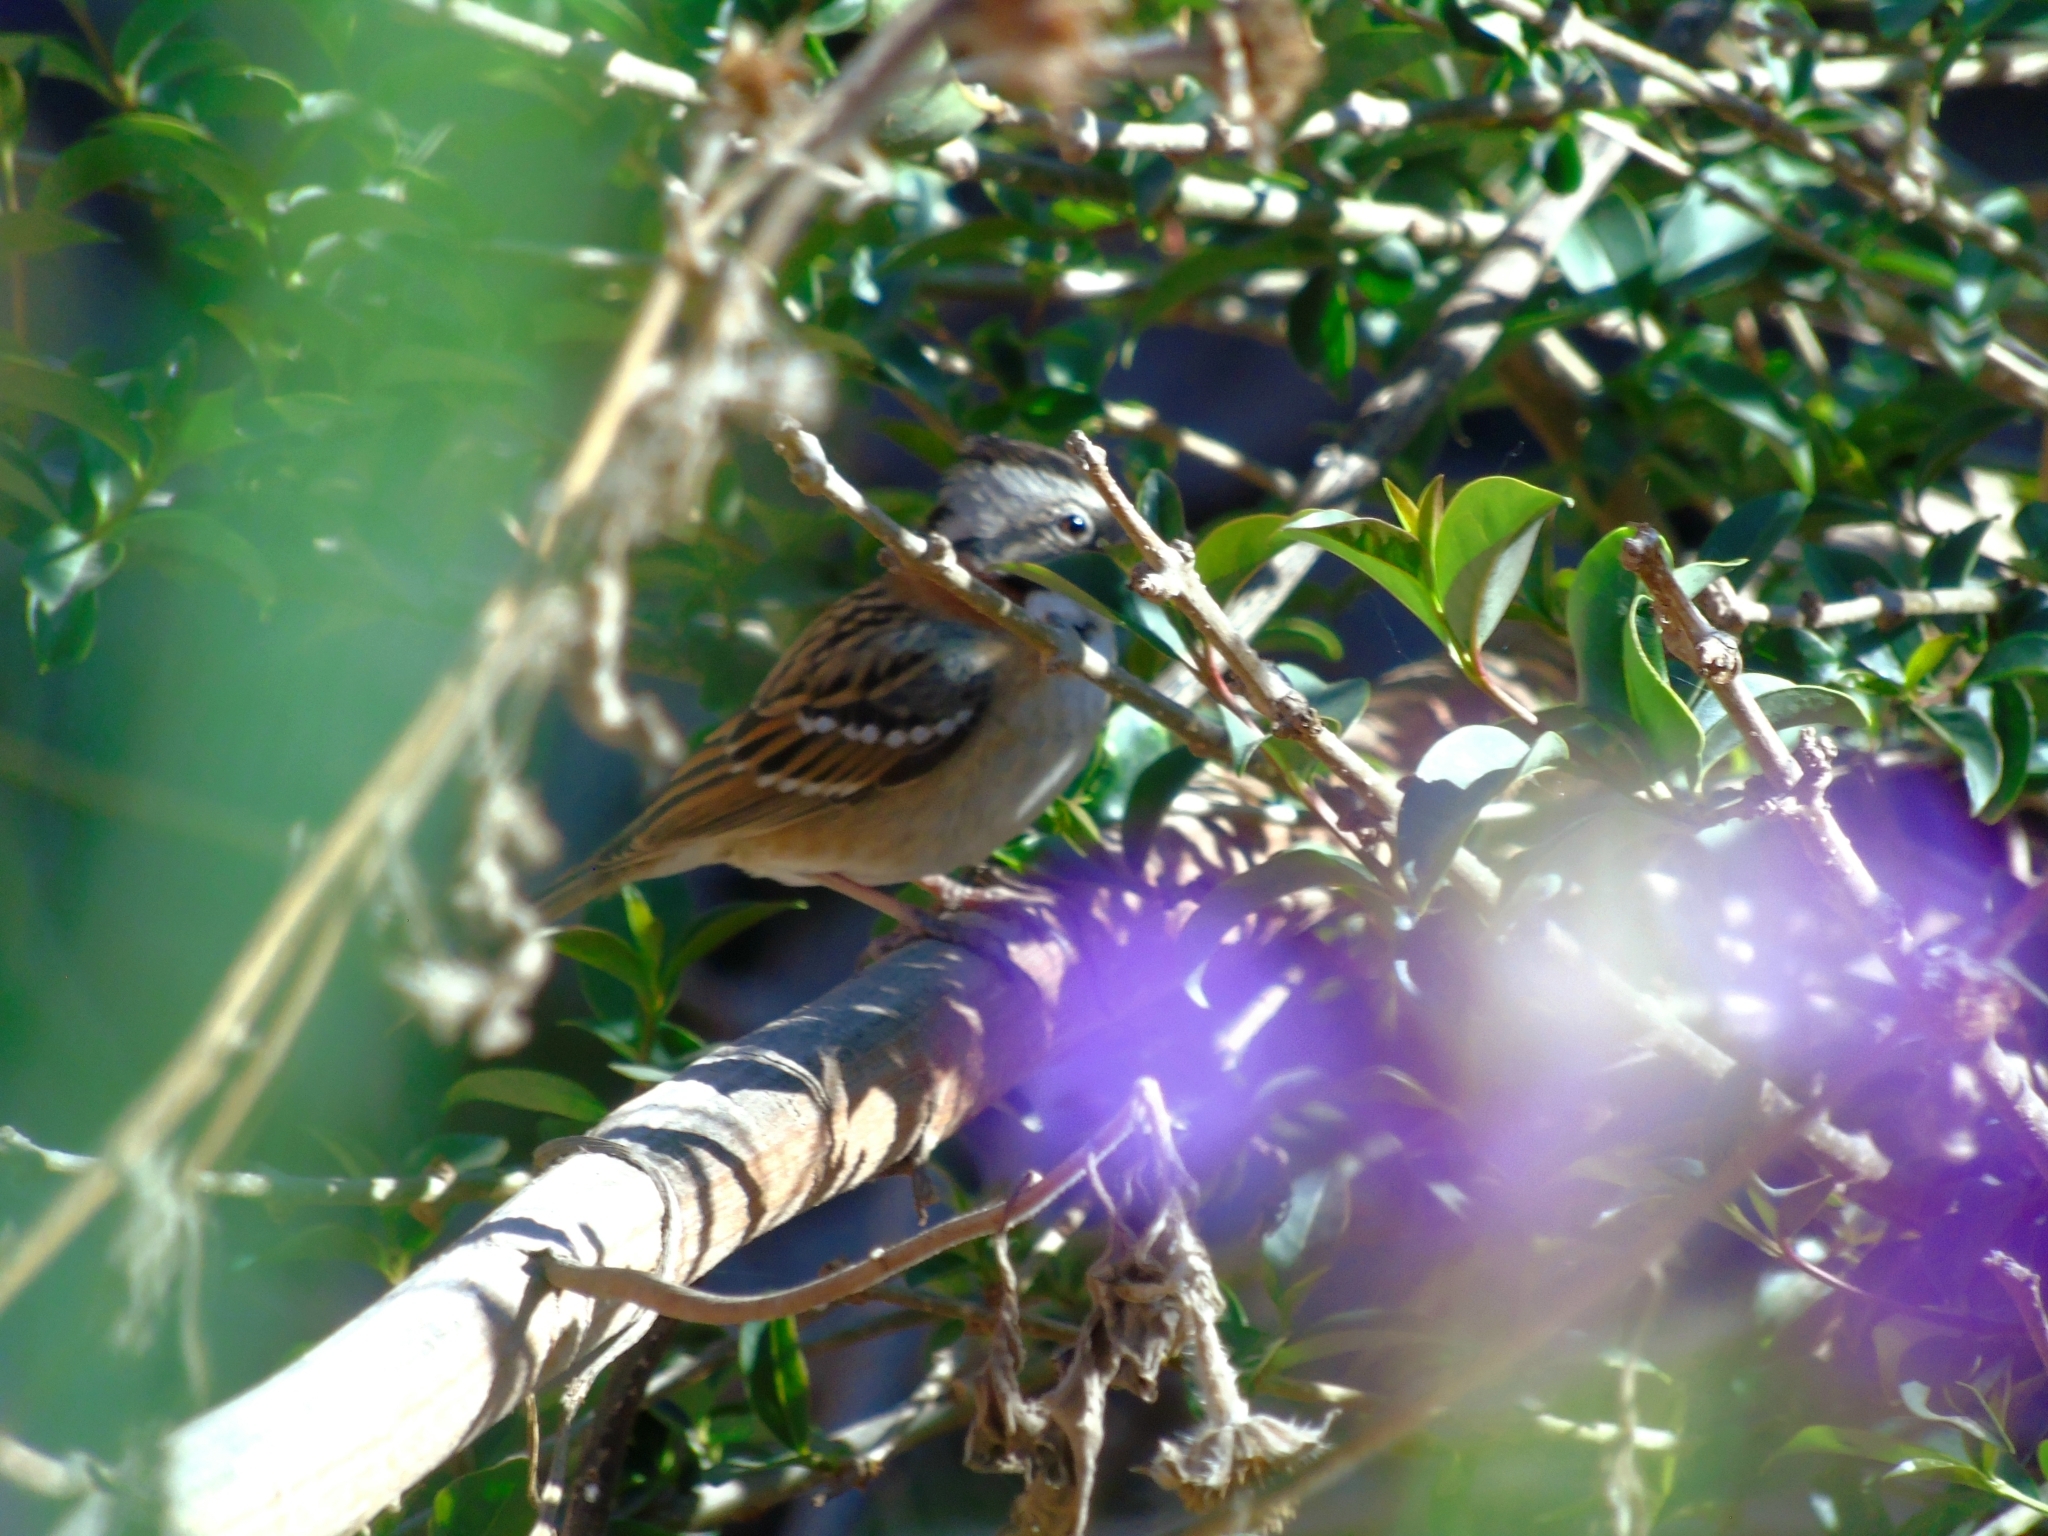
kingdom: Animalia
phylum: Chordata
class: Aves
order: Passeriformes
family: Passerellidae
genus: Zonotrichia
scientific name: Zonotrichia capensis
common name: Rufous-collared sparrow
